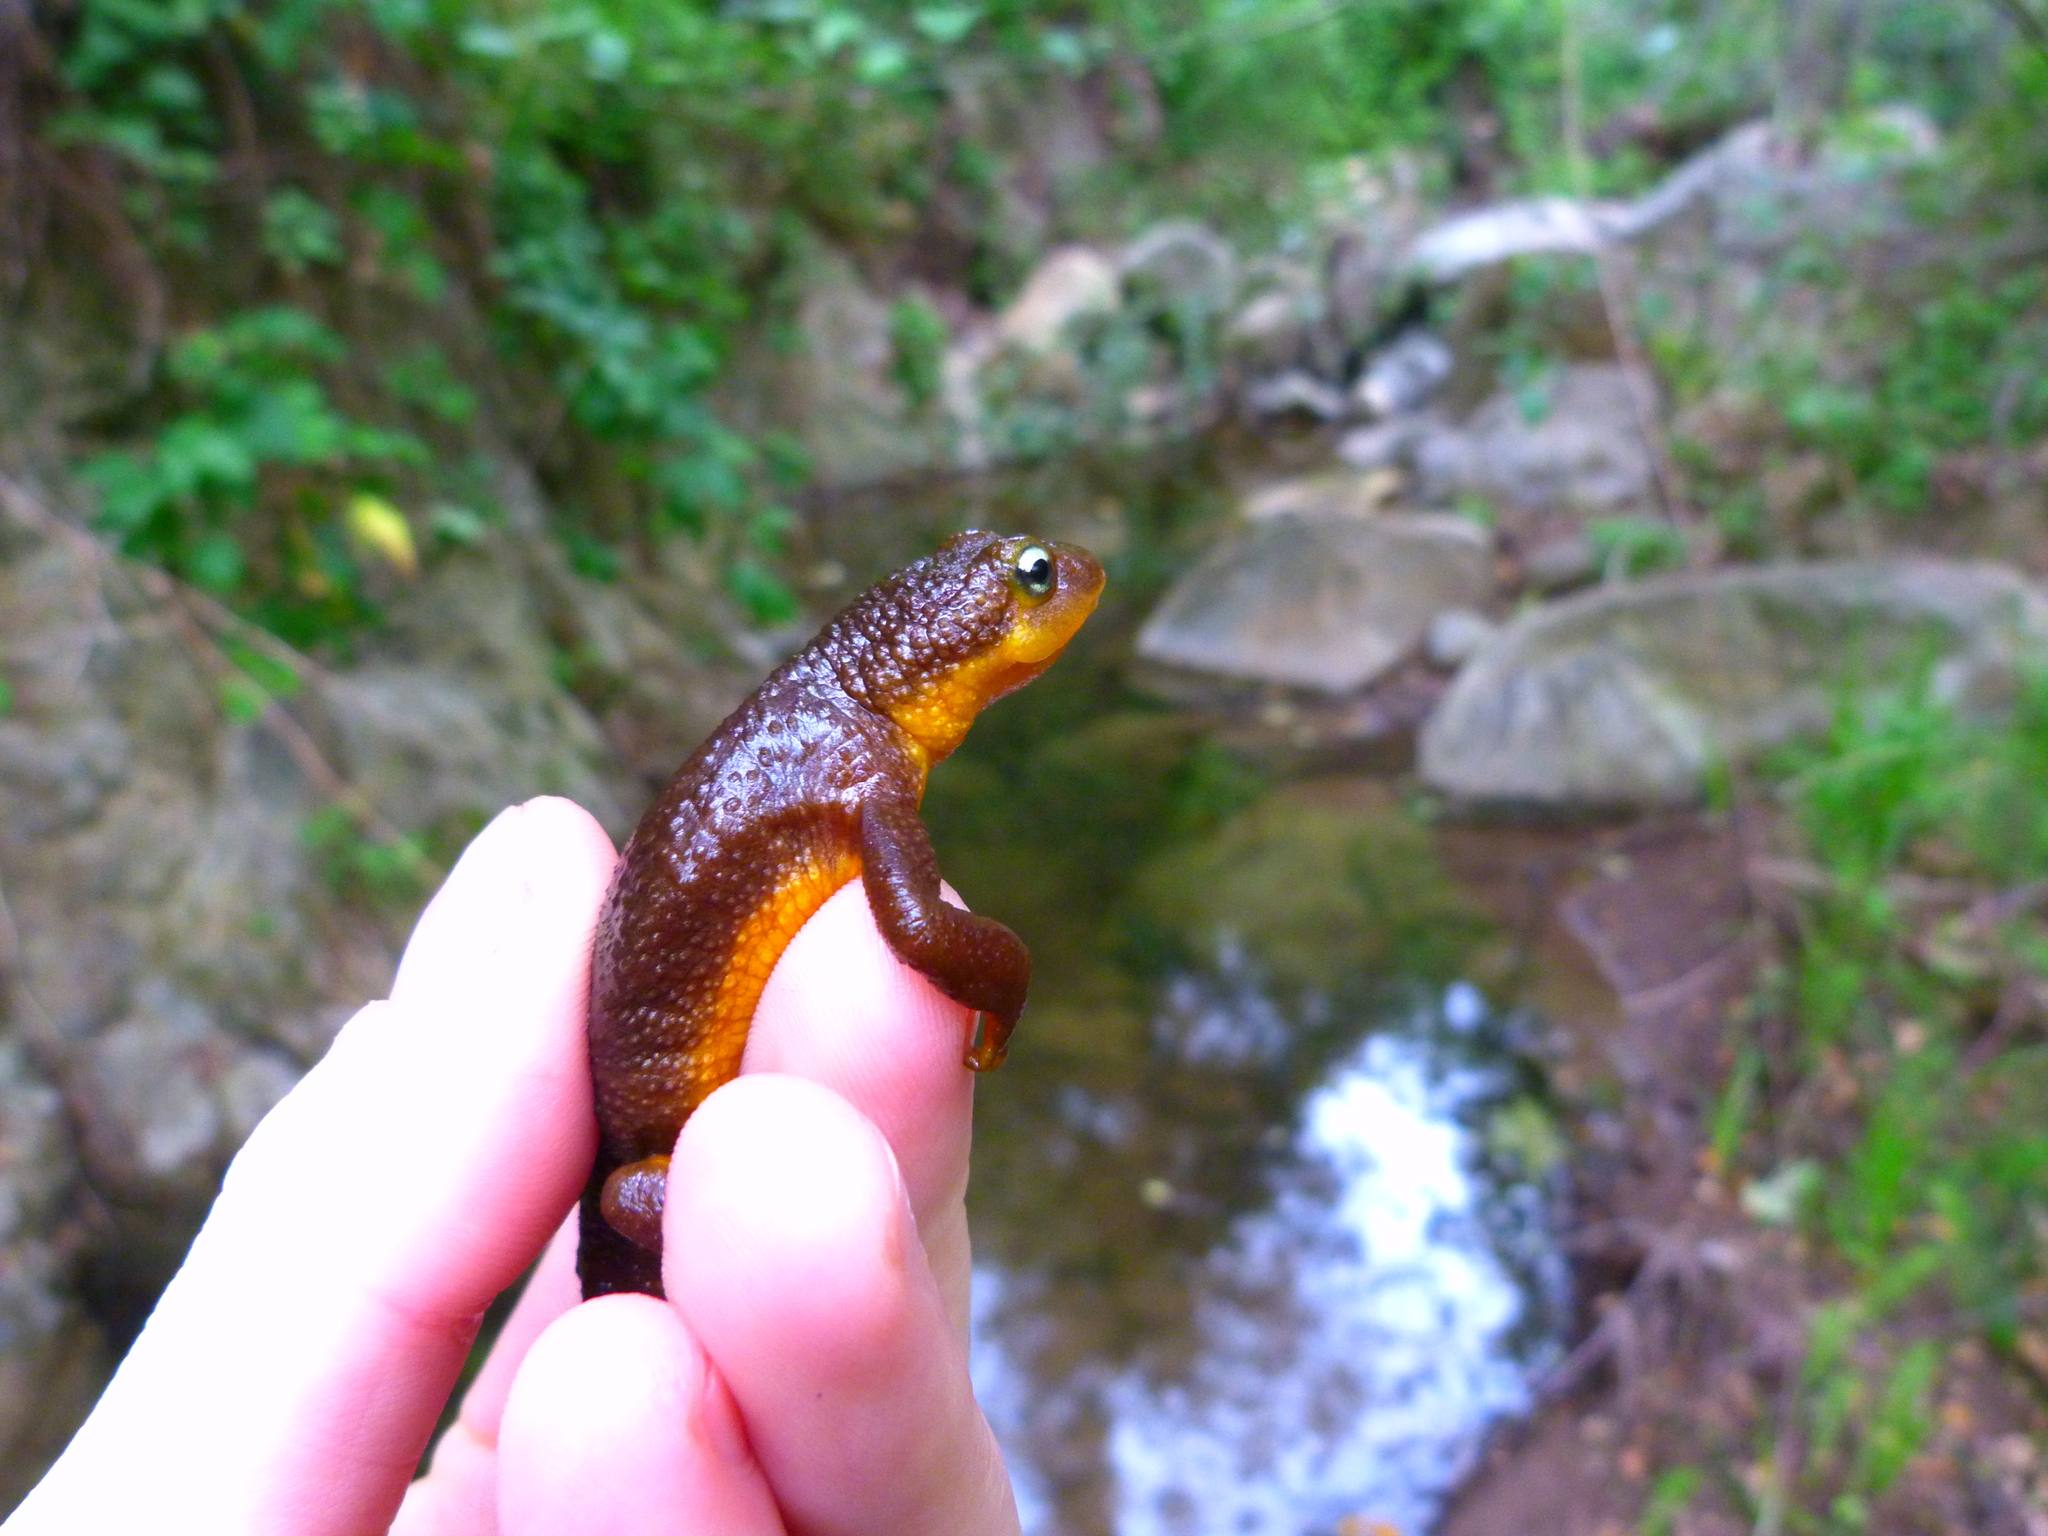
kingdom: Animalia
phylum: Chordata
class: Amphibia
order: Caudata
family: Salamandridae
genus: Taricha
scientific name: Taricha torosa
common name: California newt
